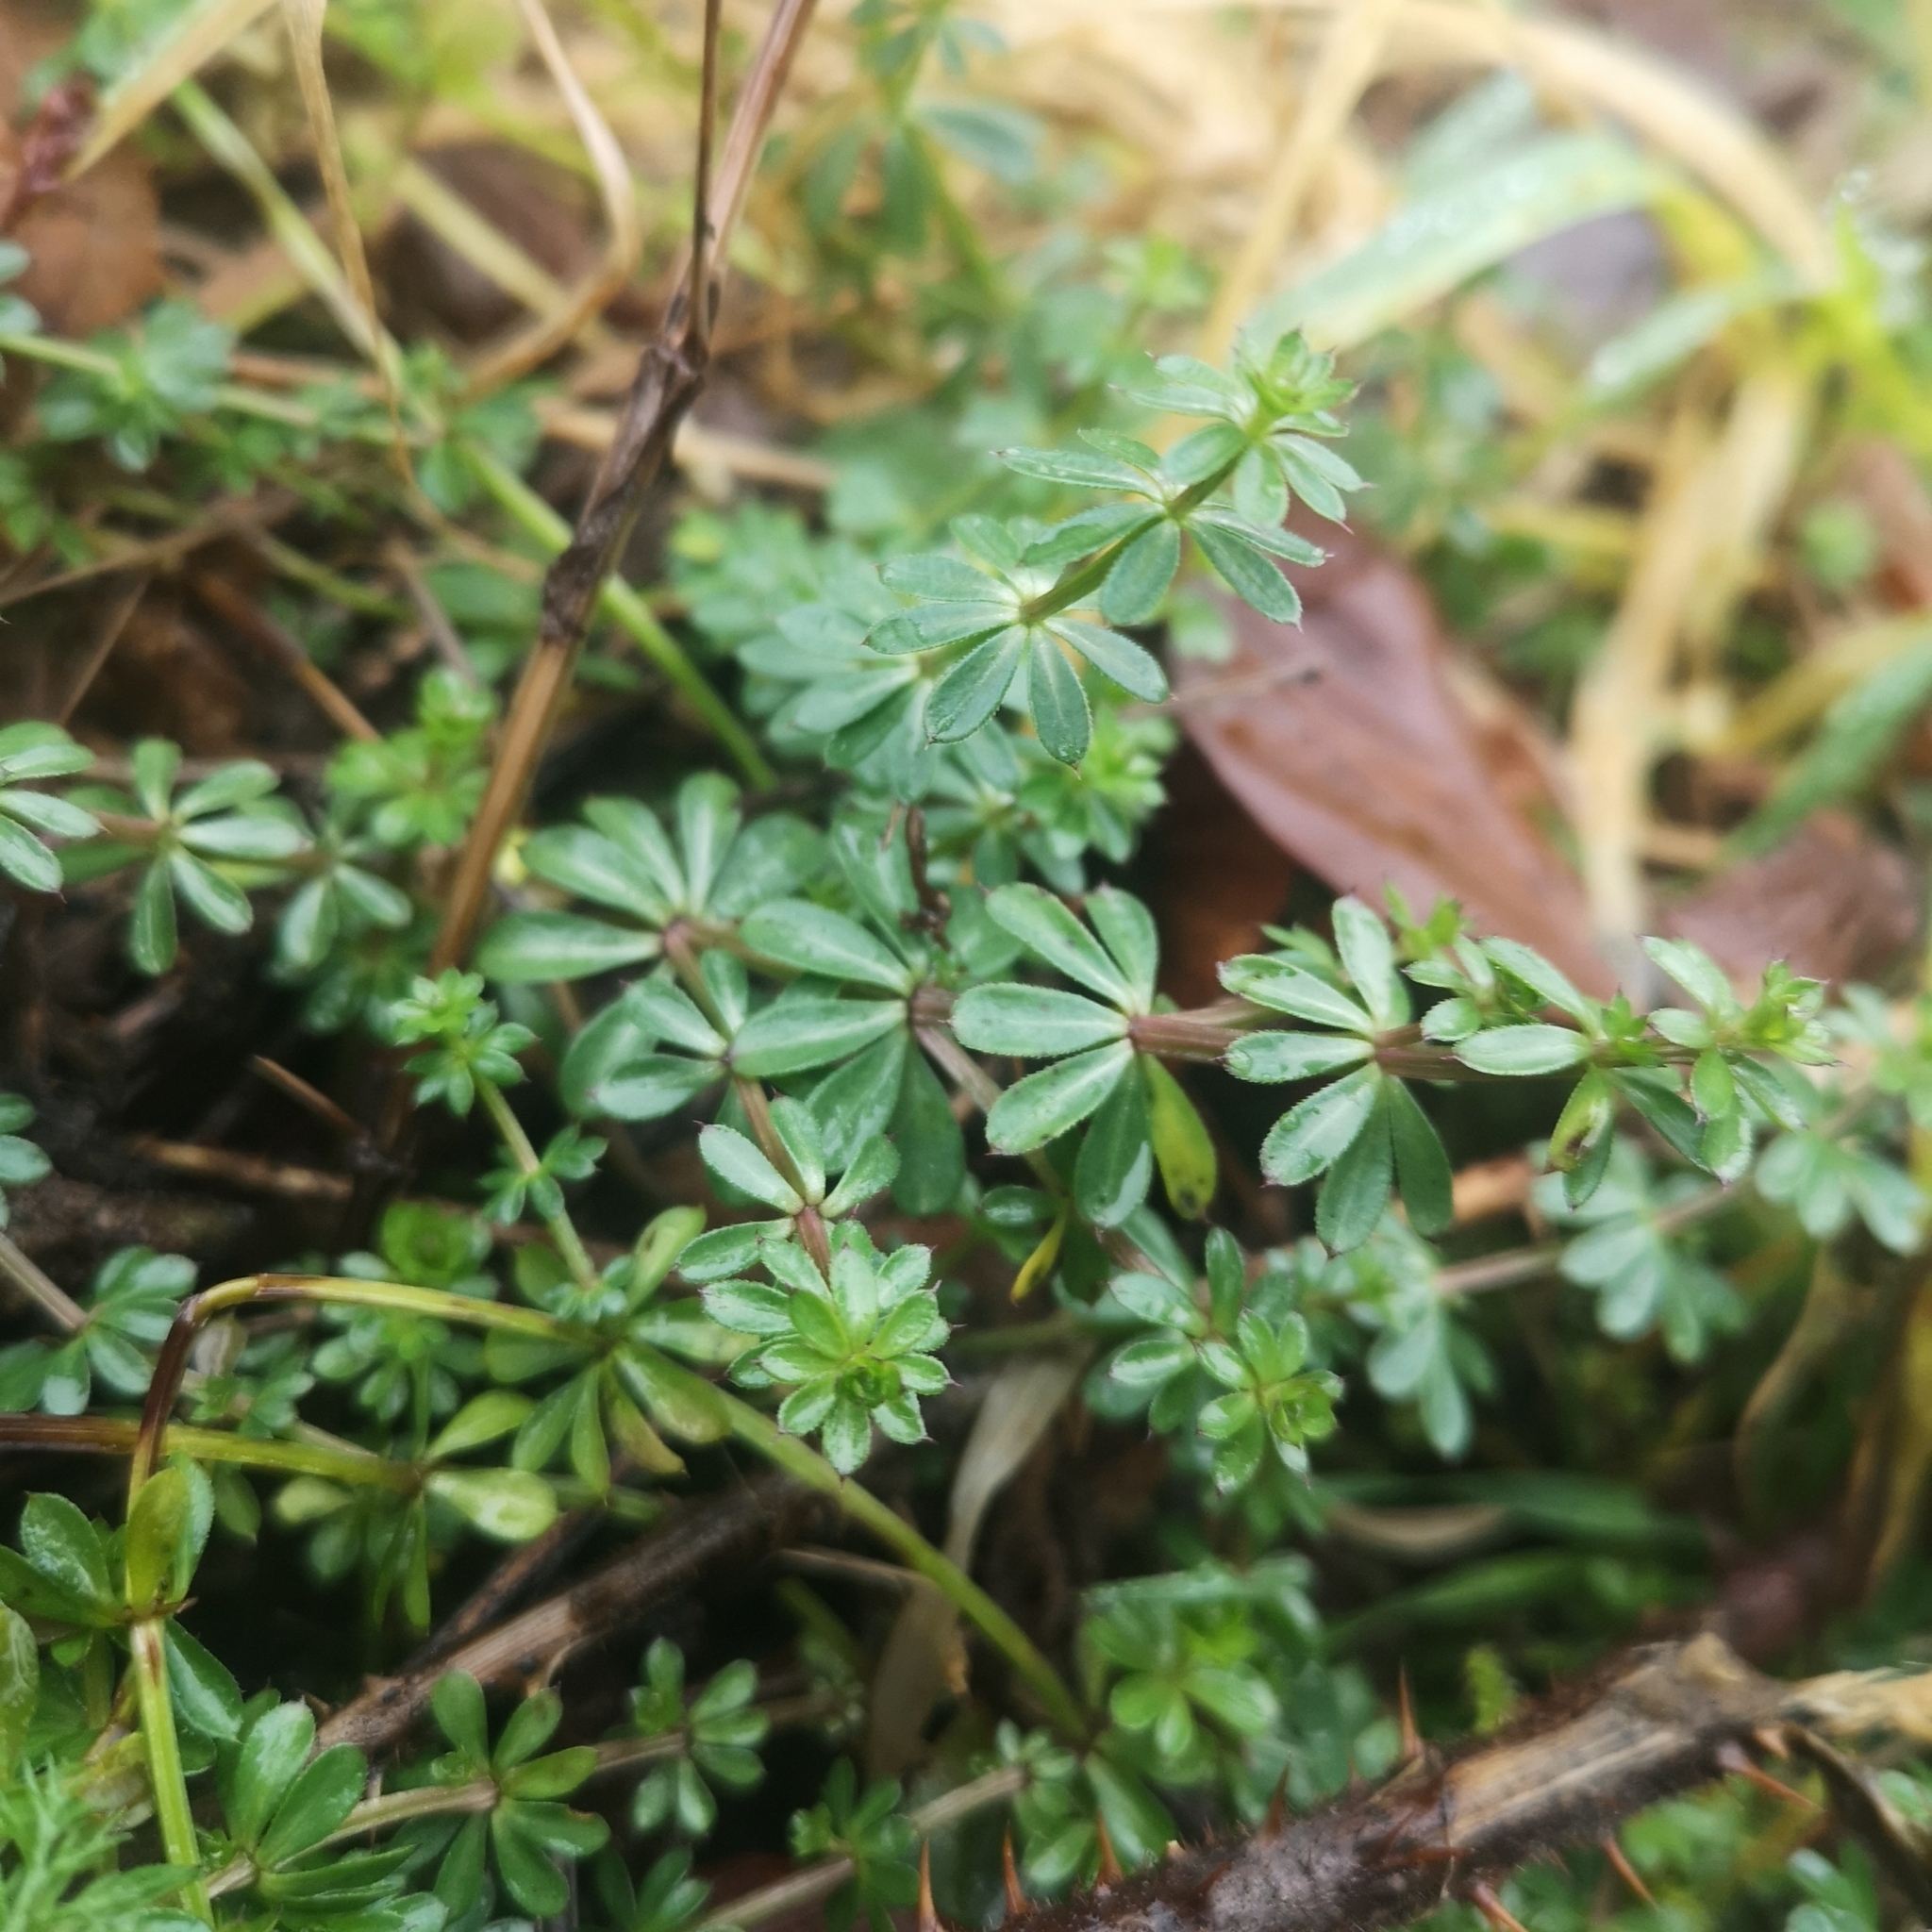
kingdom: Plantae
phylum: Tracheophyta
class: Magnoliopsida
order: Gentianales
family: Rubiaceae
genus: Galium
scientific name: Galium mollugo
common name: Hedge bedstraw
